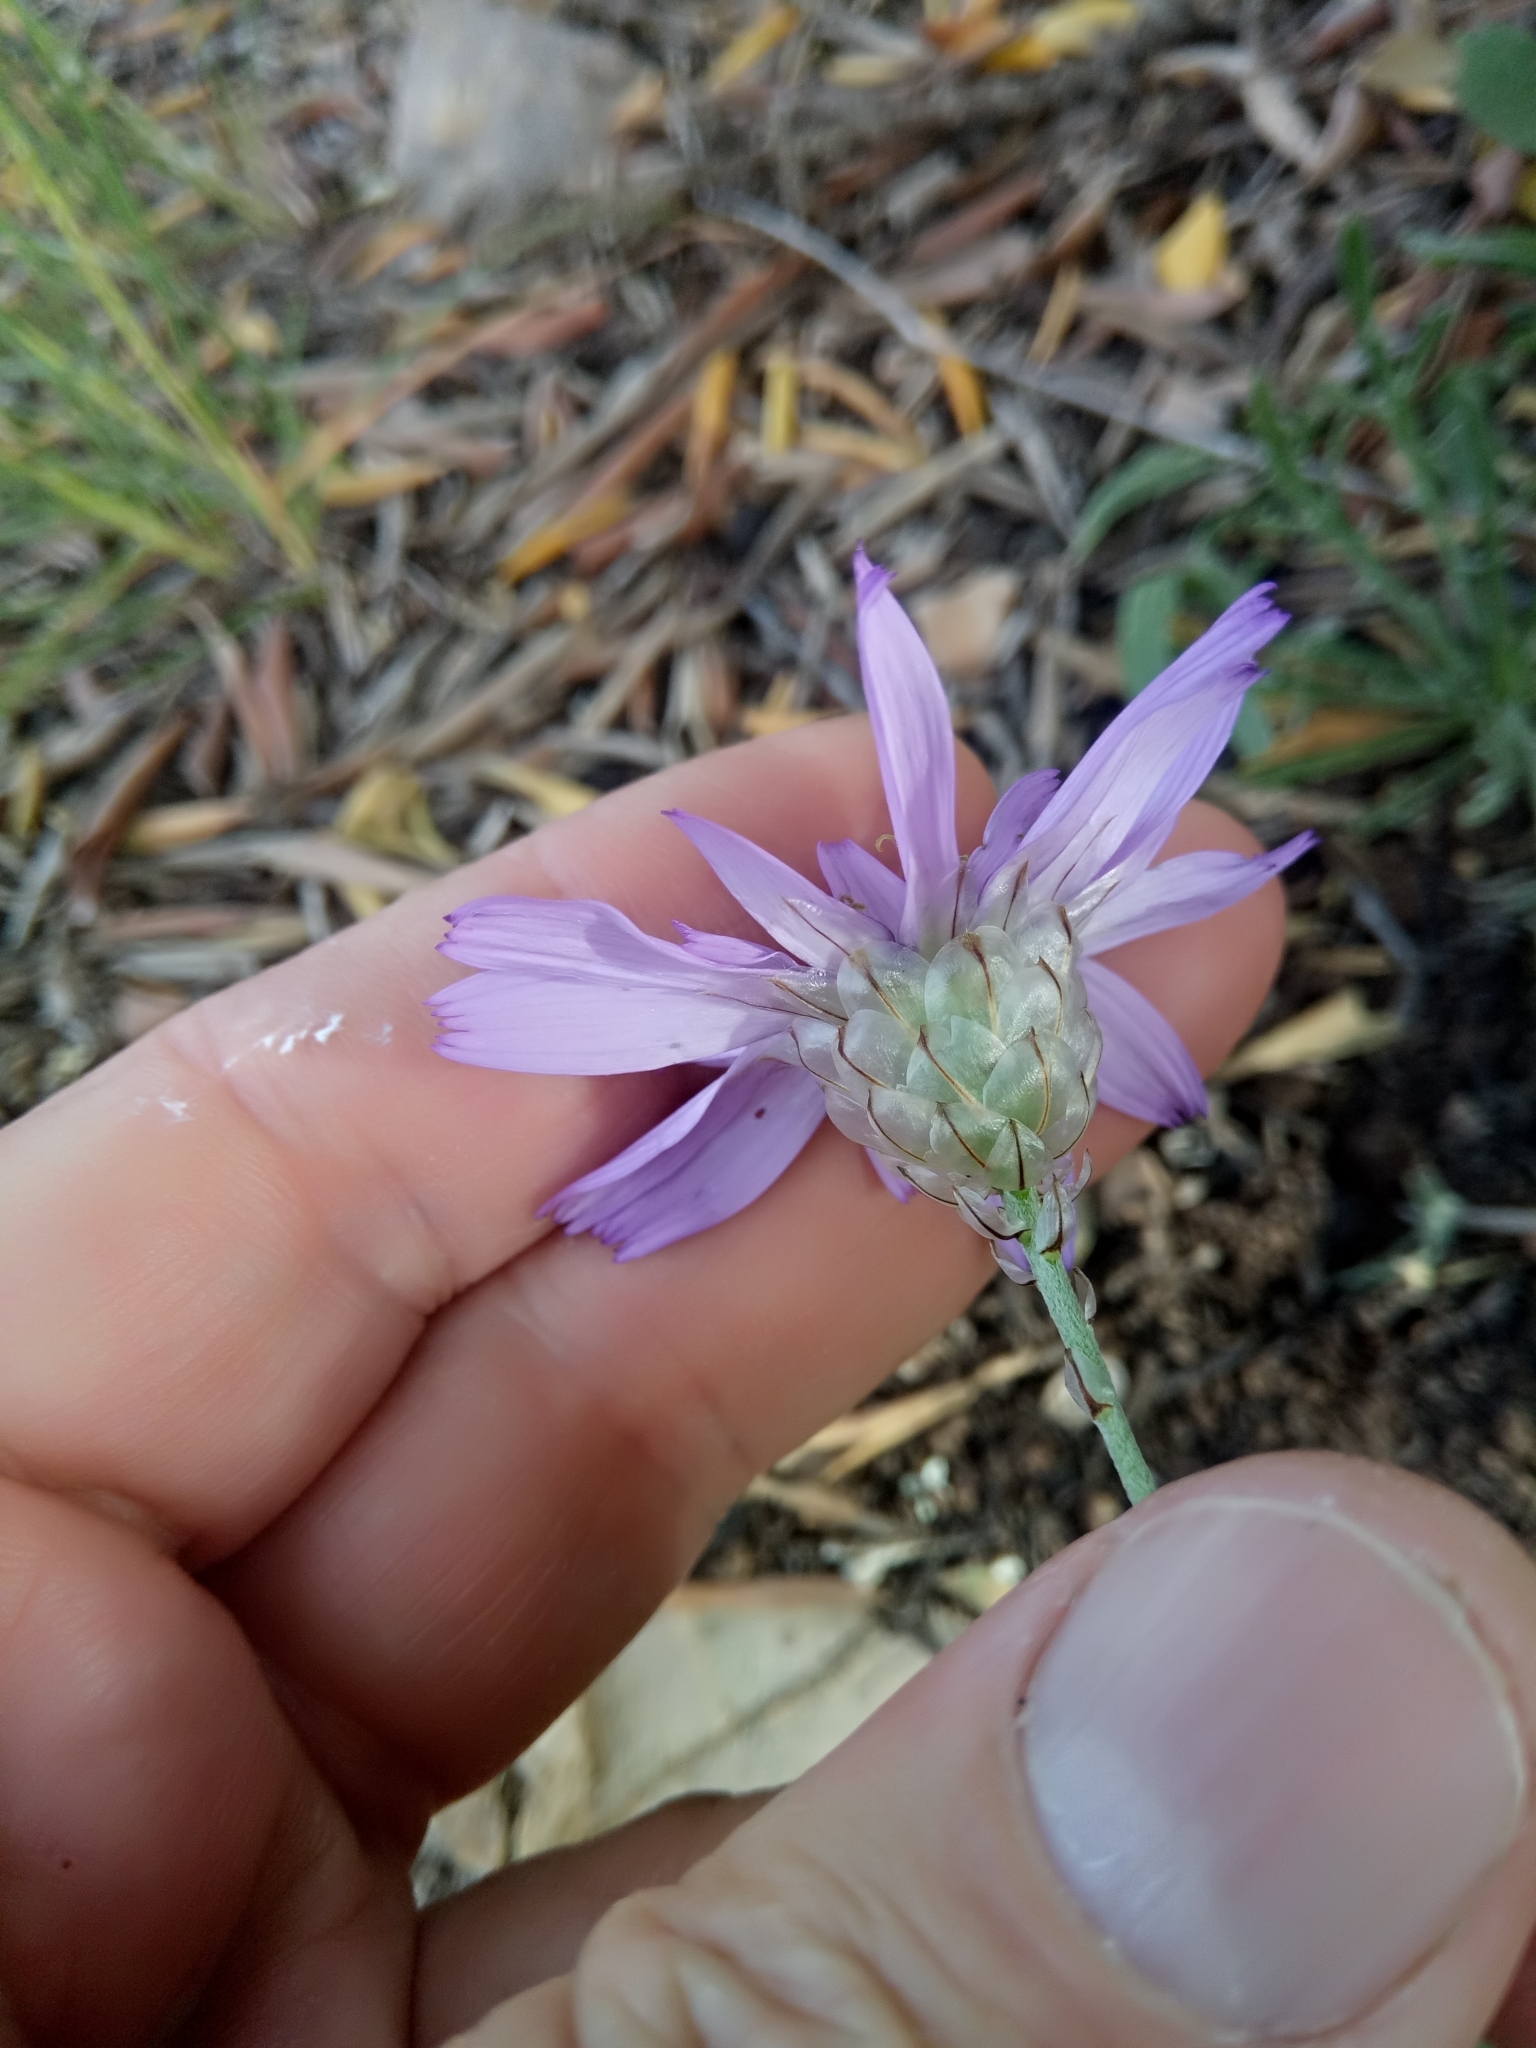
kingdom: Plantae
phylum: Tracheophyta
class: Magnoliopsida
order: Asterales
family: Asteraceae
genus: Catananche
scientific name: Catananche caerulea
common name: Blue cupidone
